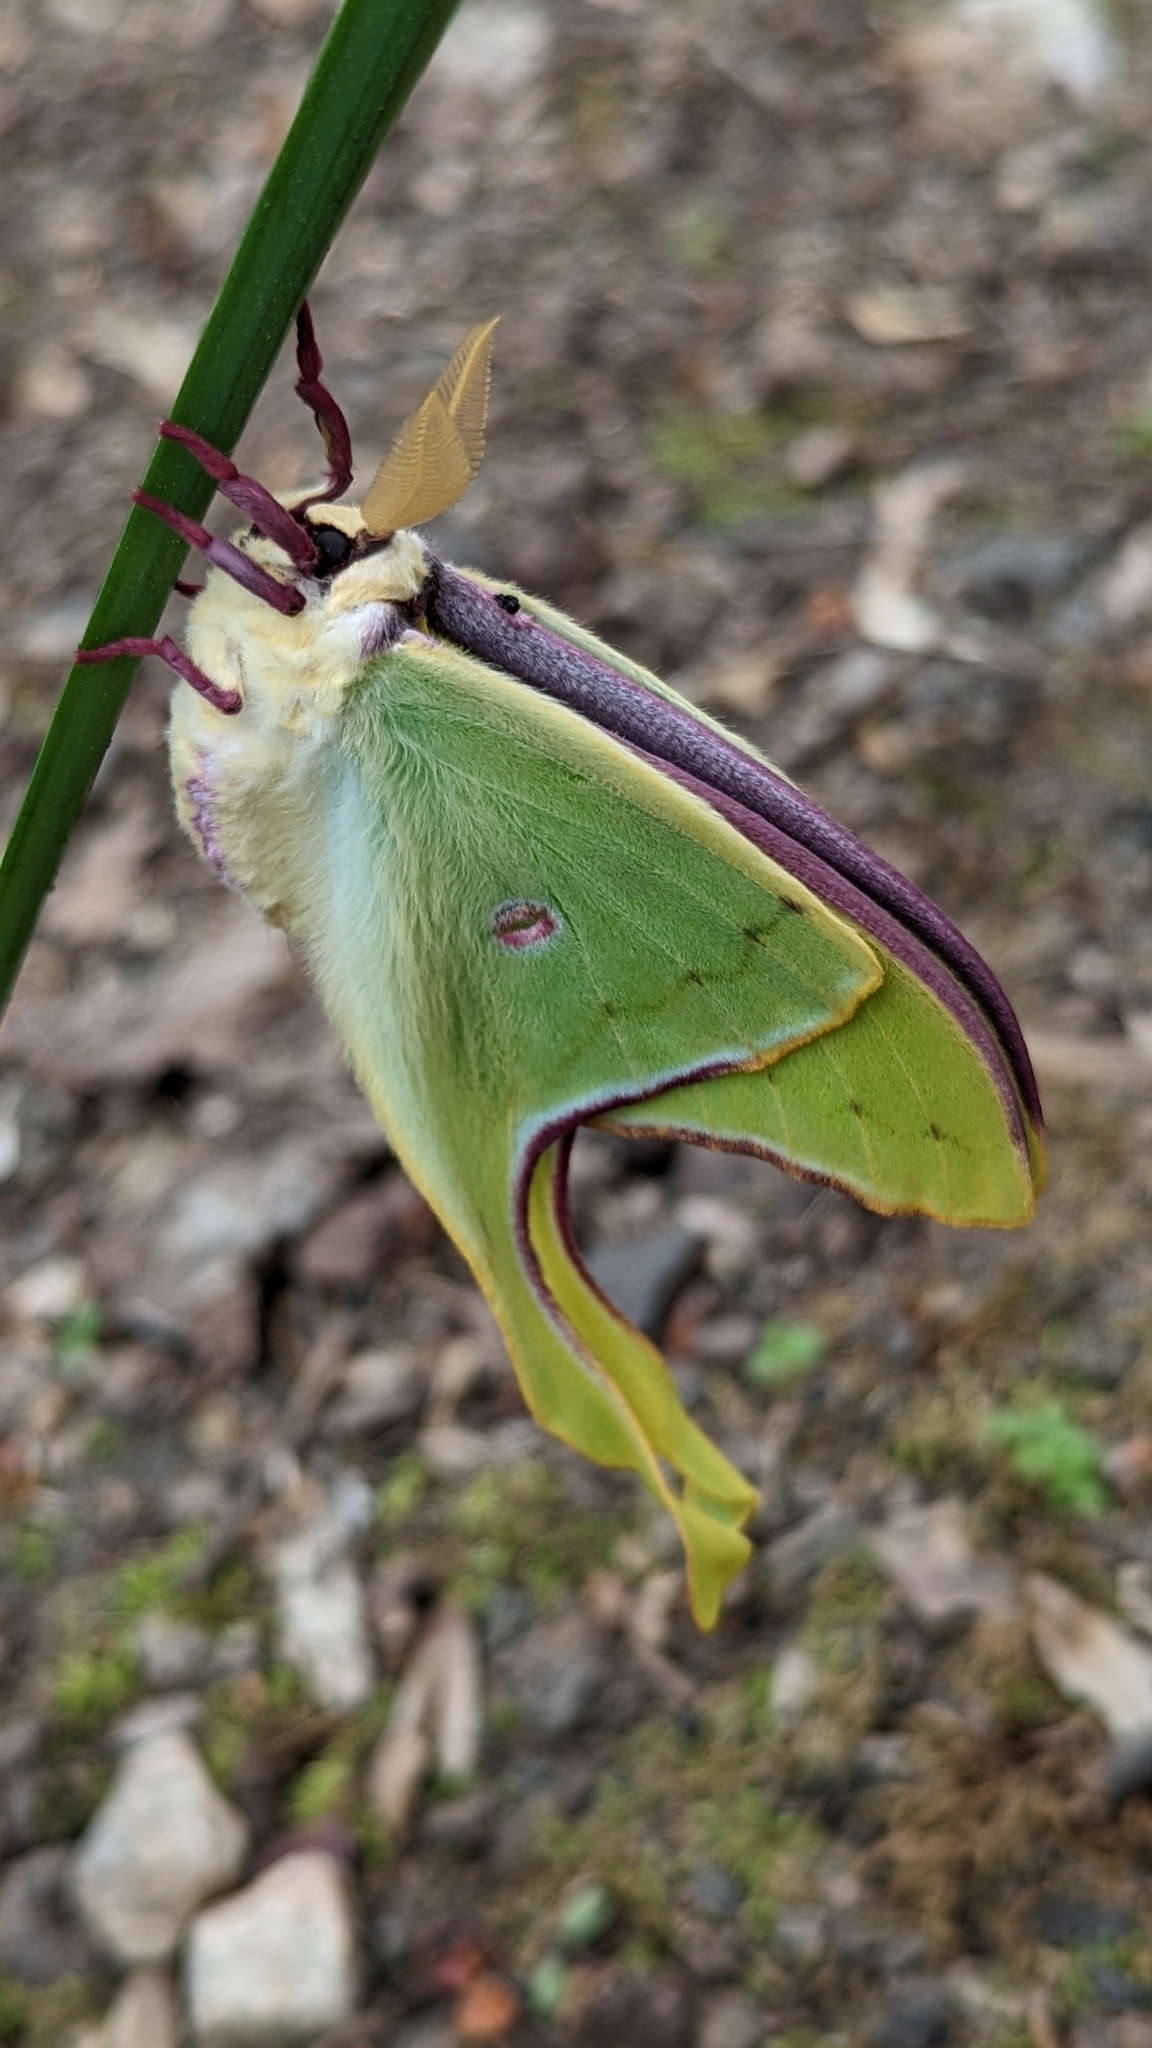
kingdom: Animalia
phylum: Arthropoda
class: Insecta
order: Lepidoptera
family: Saturniidae
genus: Actias
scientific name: Actias luna
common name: Luna moth
